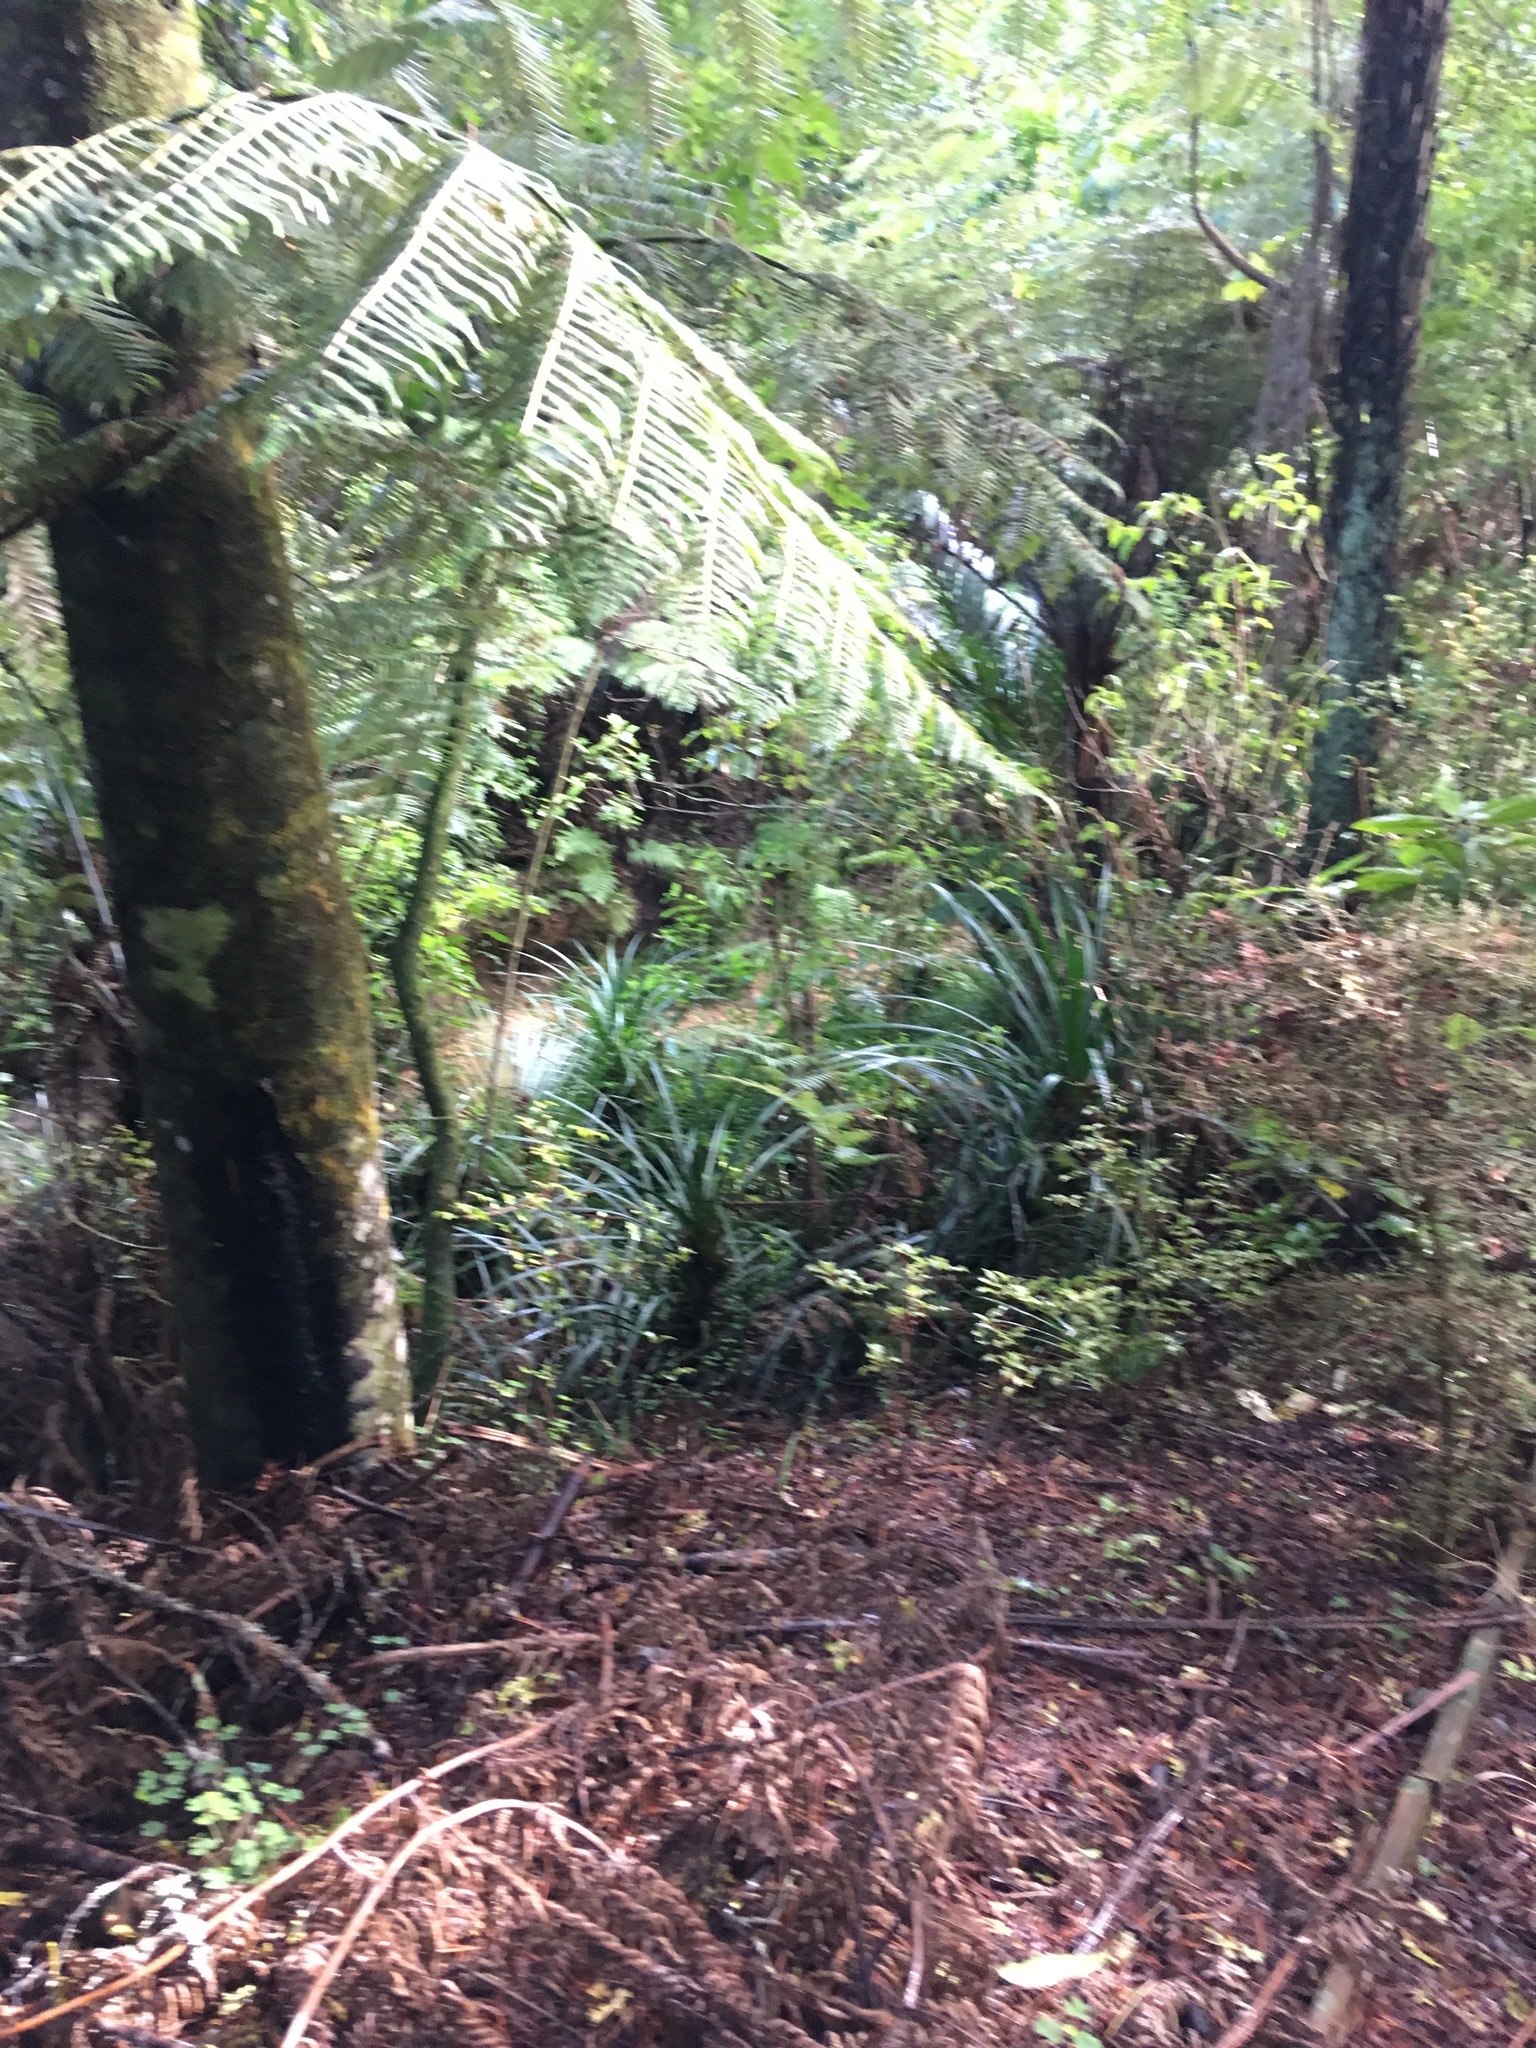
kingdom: Plantae
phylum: Tracheophyta
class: Pinopsida
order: Pinales
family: Phyllocladaceae
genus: Phyllocladus
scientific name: Phyllocladus trichomanoides
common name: Celery pine
